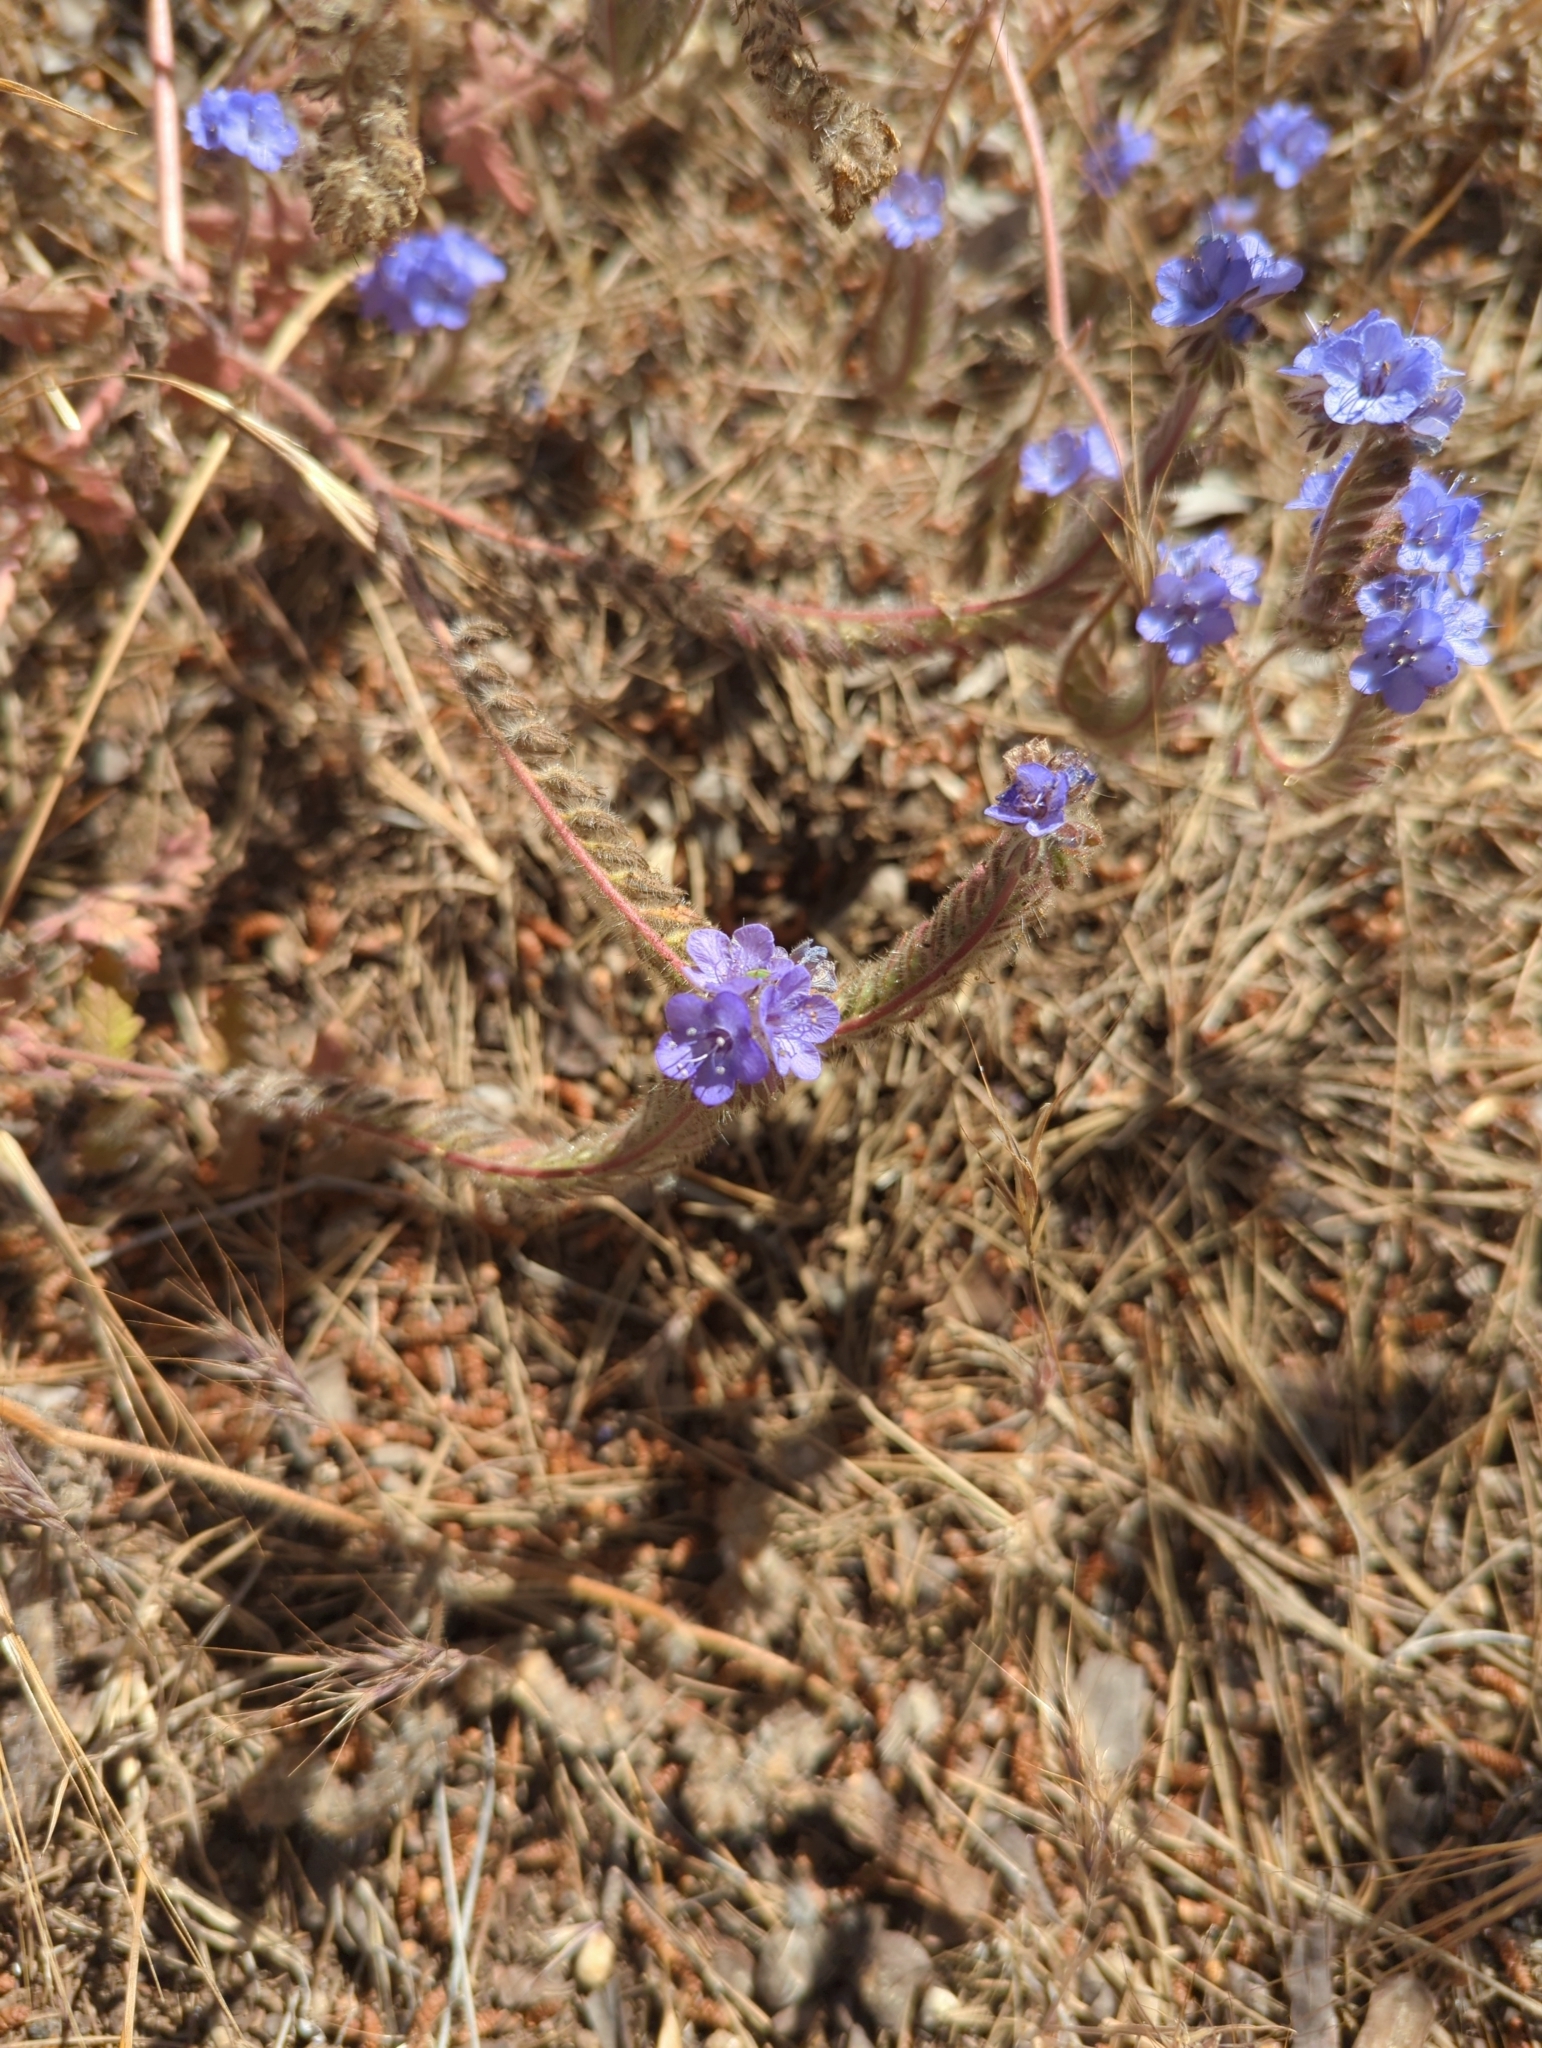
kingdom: Plantae
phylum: Tracheophyta
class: Magnoliopsida
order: Boraginales
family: Hydrophyllaceae
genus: Phacelia
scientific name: Phacelia distans
